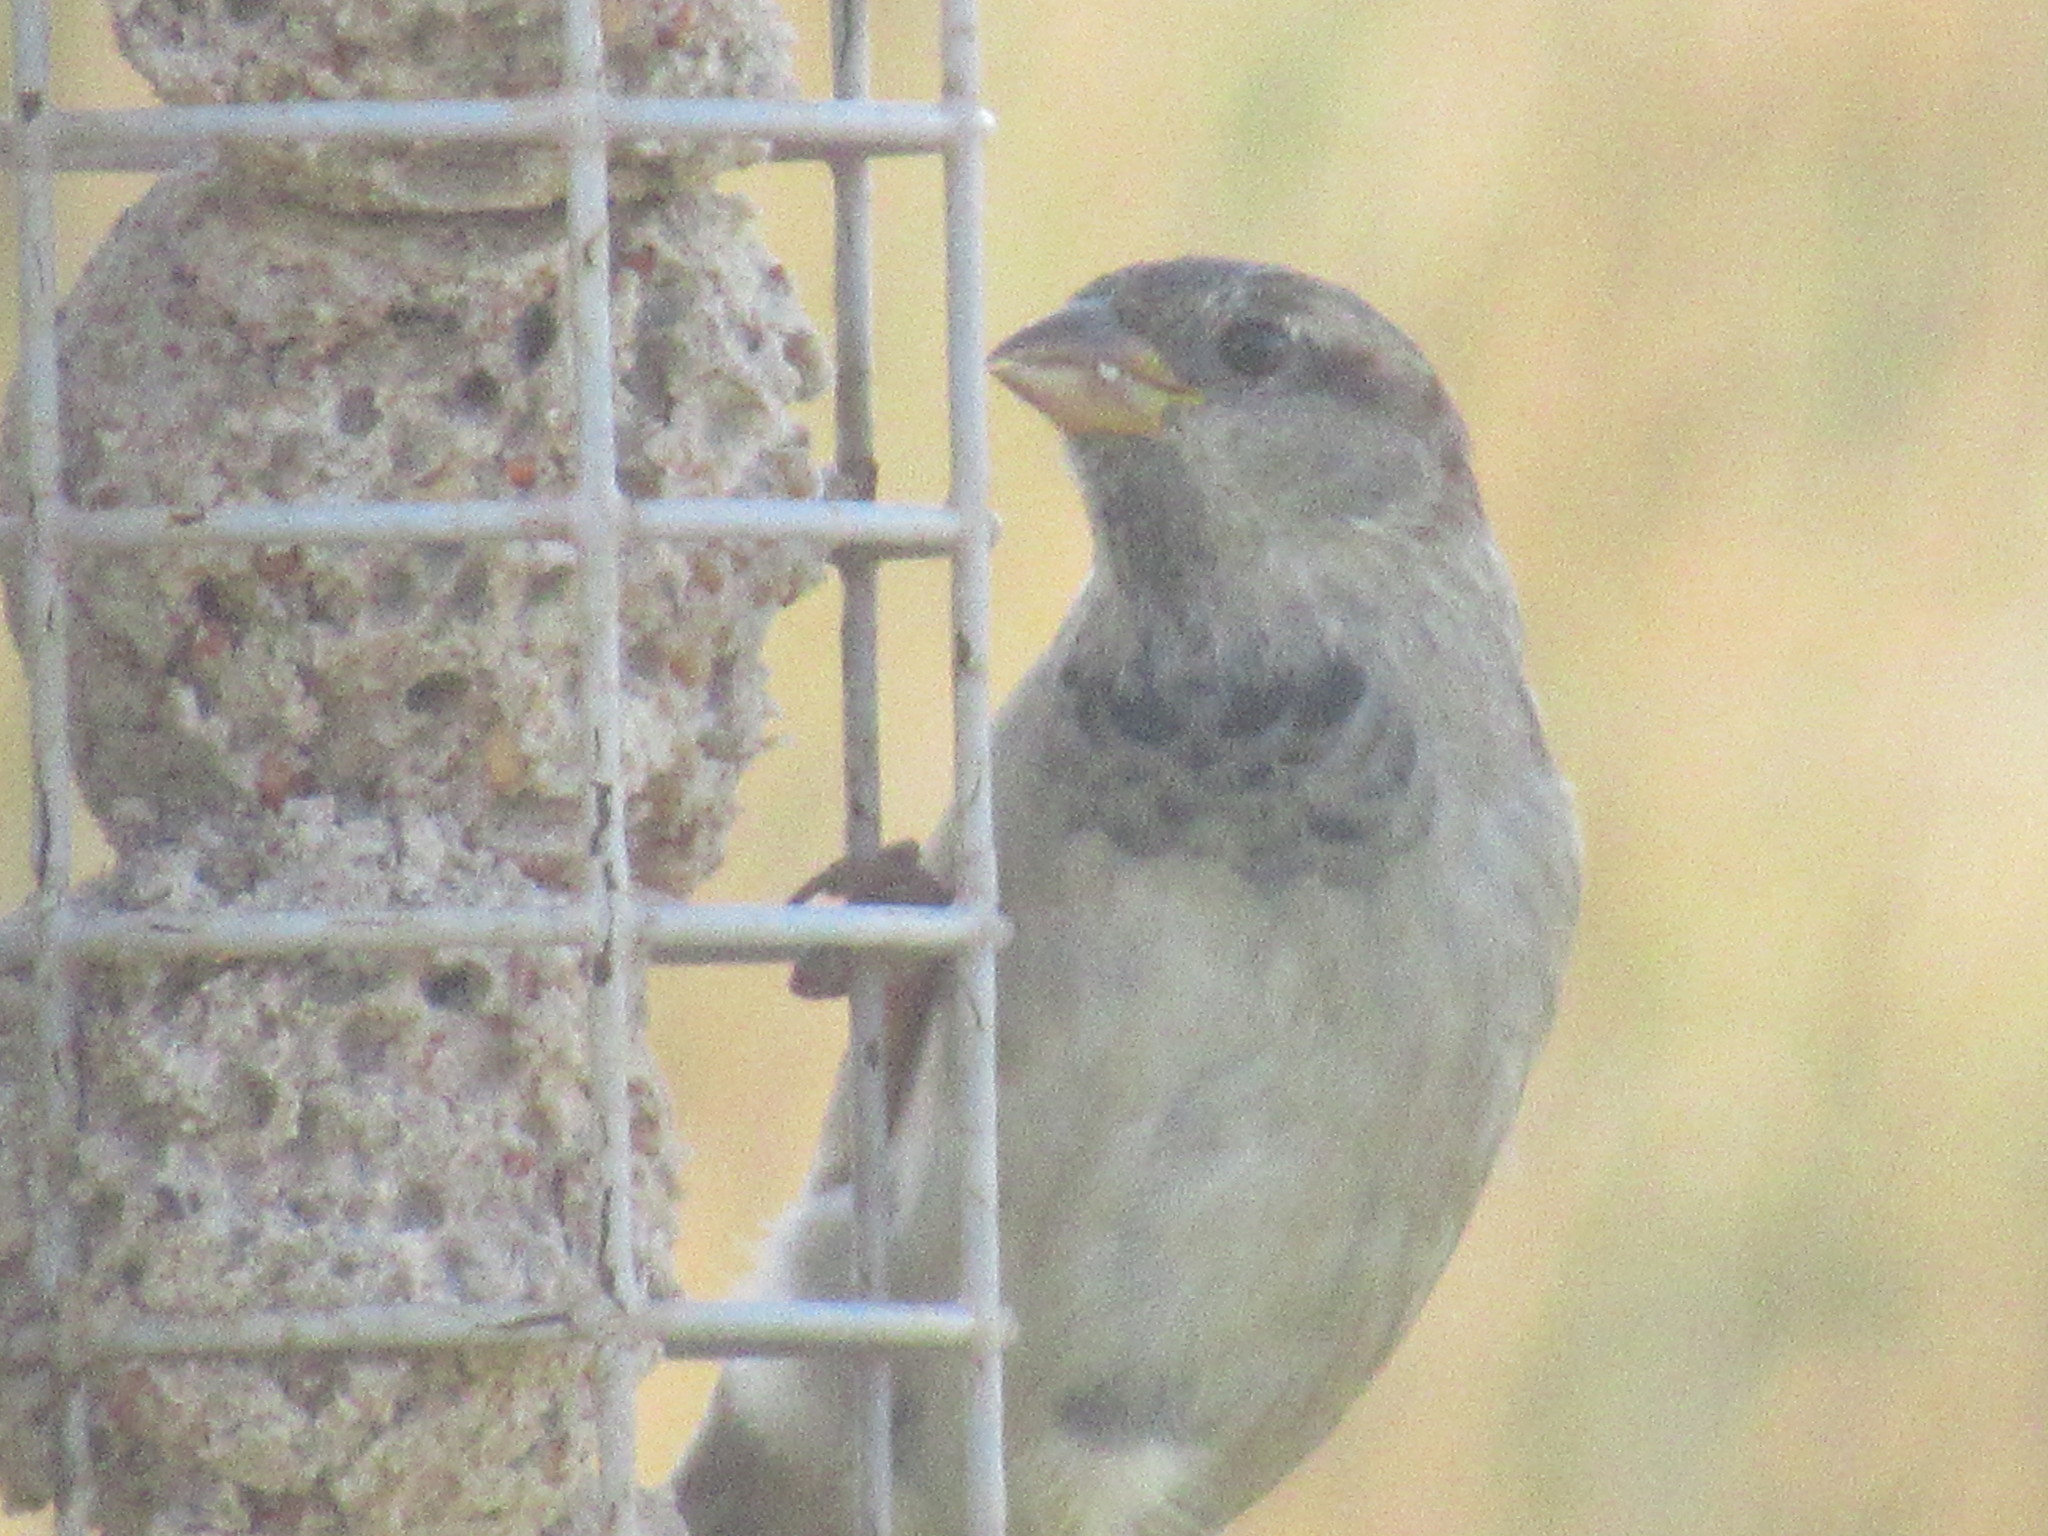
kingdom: Animalia
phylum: Chordata
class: Aves
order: Passeriformes
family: Passeridae
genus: Passer
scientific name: Passer domesticus
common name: House sparrow
